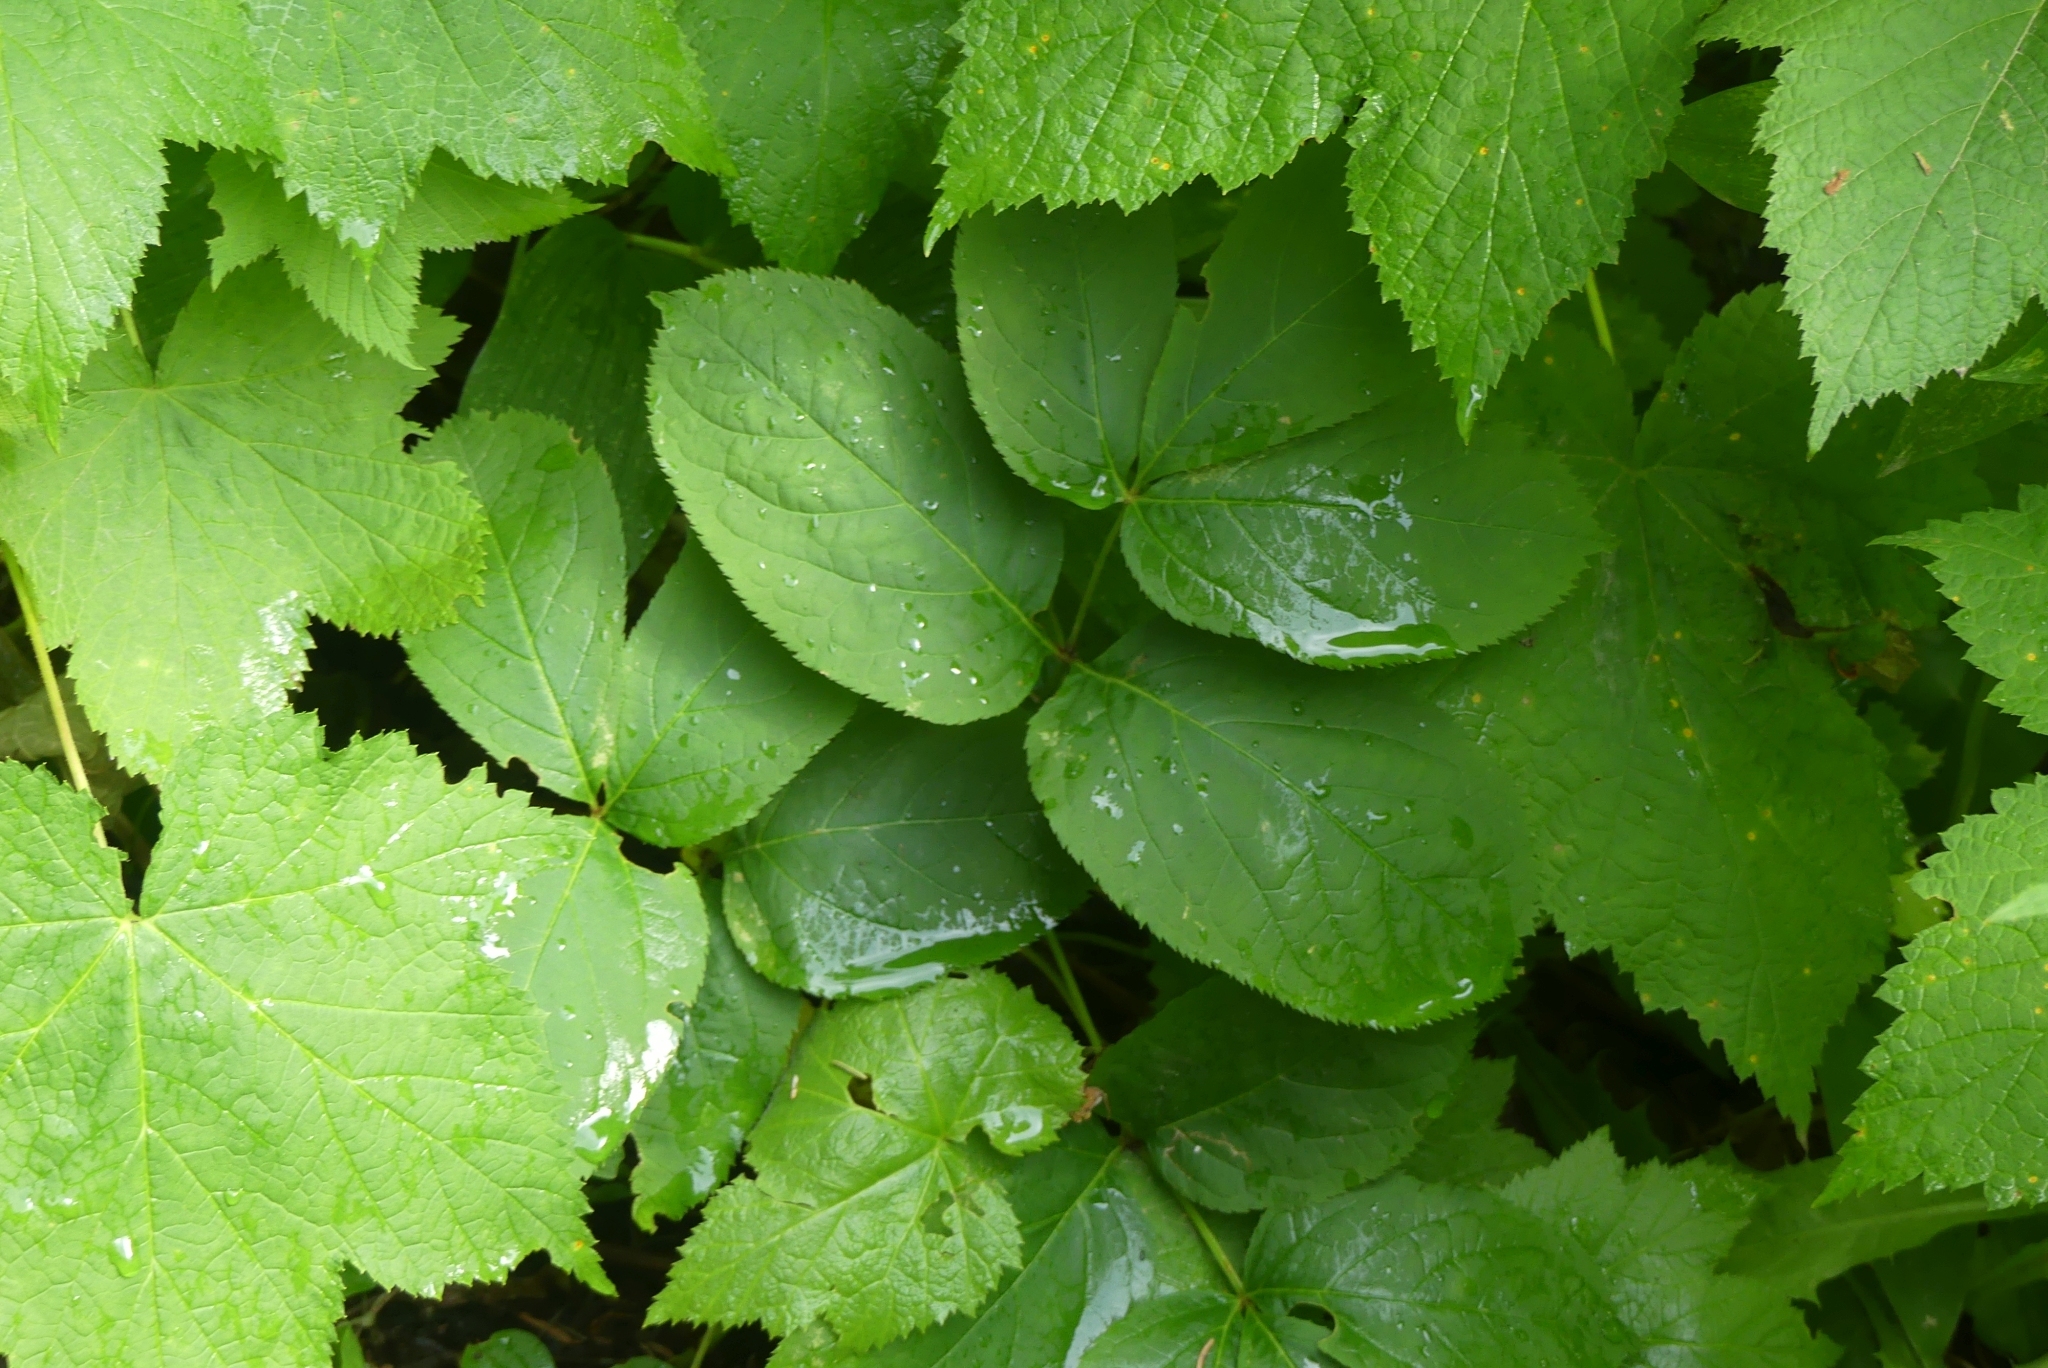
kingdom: Plantae
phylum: Tracheophyta
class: Magnoliopsida
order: Apiales
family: Araliaceae
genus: Aralia
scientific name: Aralia nudicaulis
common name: Wild sarsaparilla
